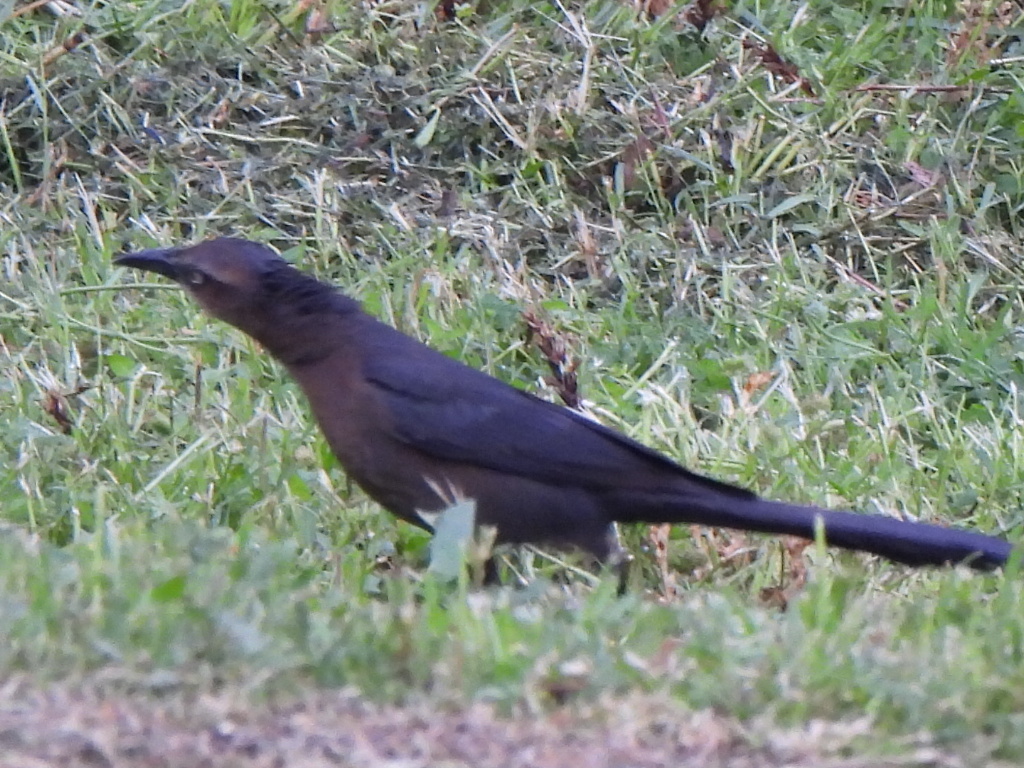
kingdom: Animalia
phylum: Chordata
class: Aves
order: Passeriformes
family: Icteridae
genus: Quiscalus
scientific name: Quiscalus mexicanus
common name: Great-tailed grackle
